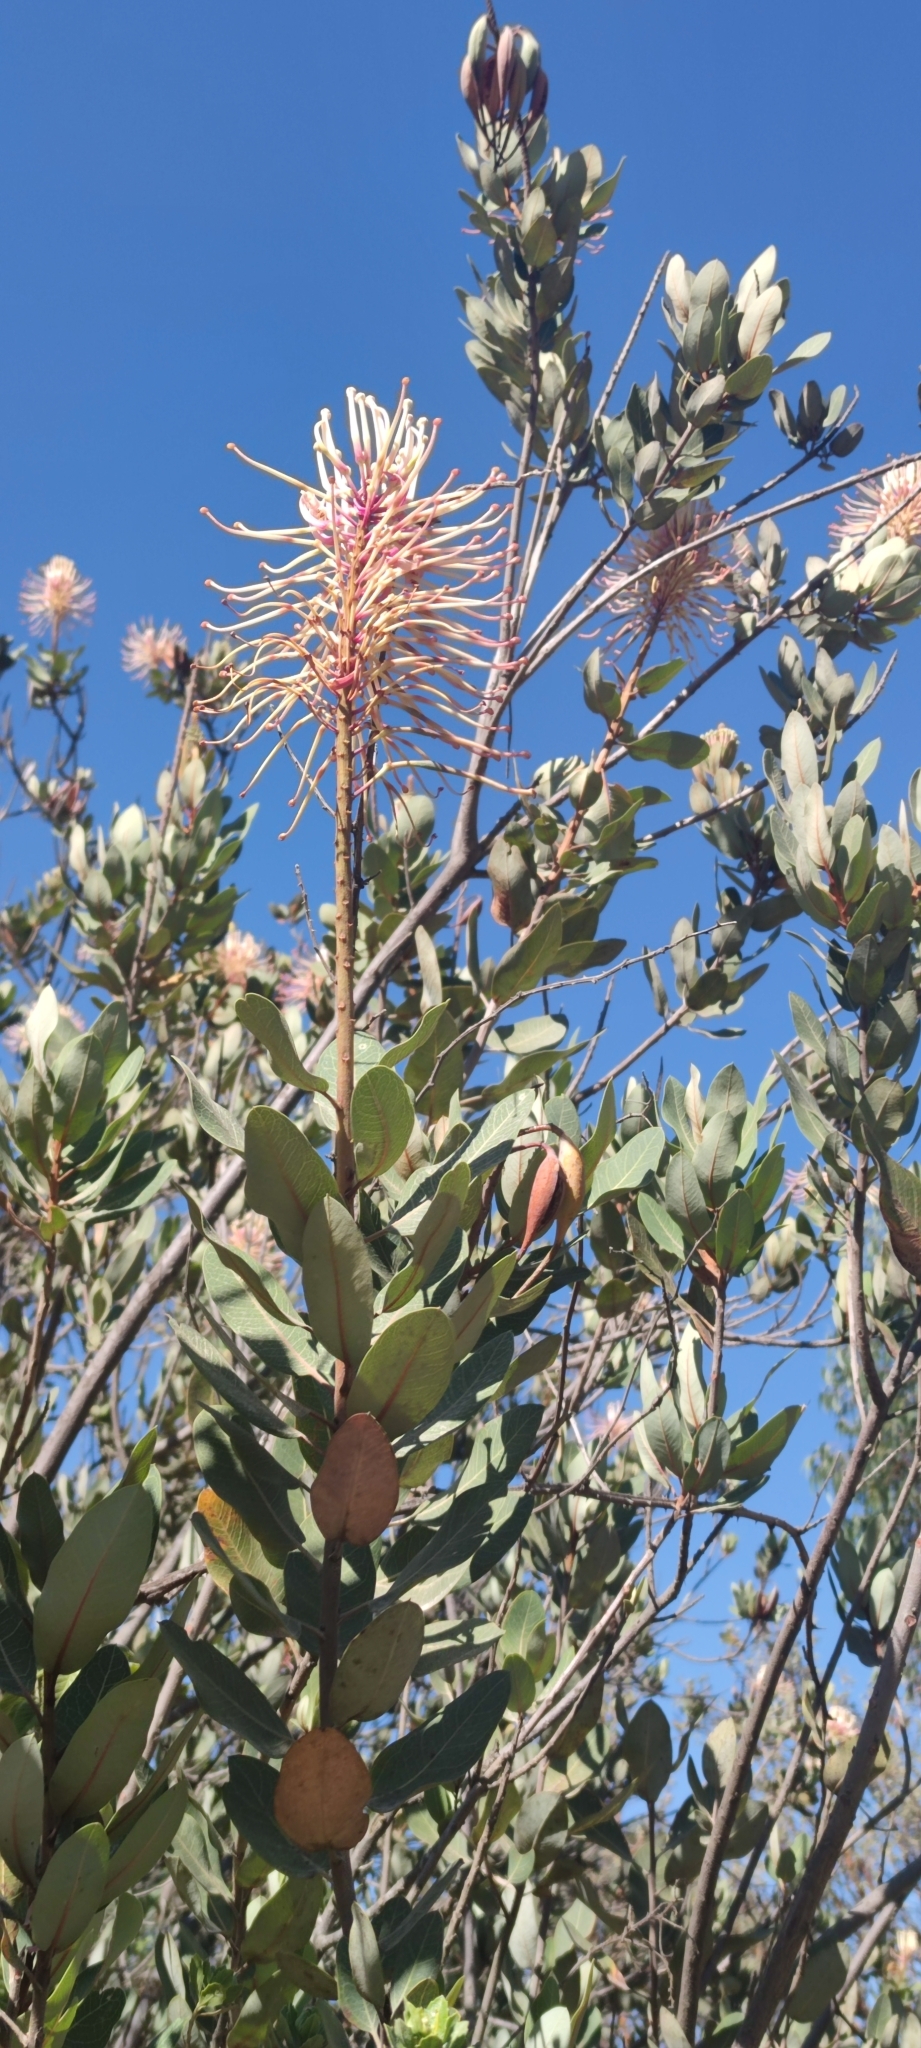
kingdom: Plantae
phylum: Tracheophyta
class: Magnoliopsida
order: Proteales
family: Proteaceae
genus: Oreocallis
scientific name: Oreocallis grandiflora
